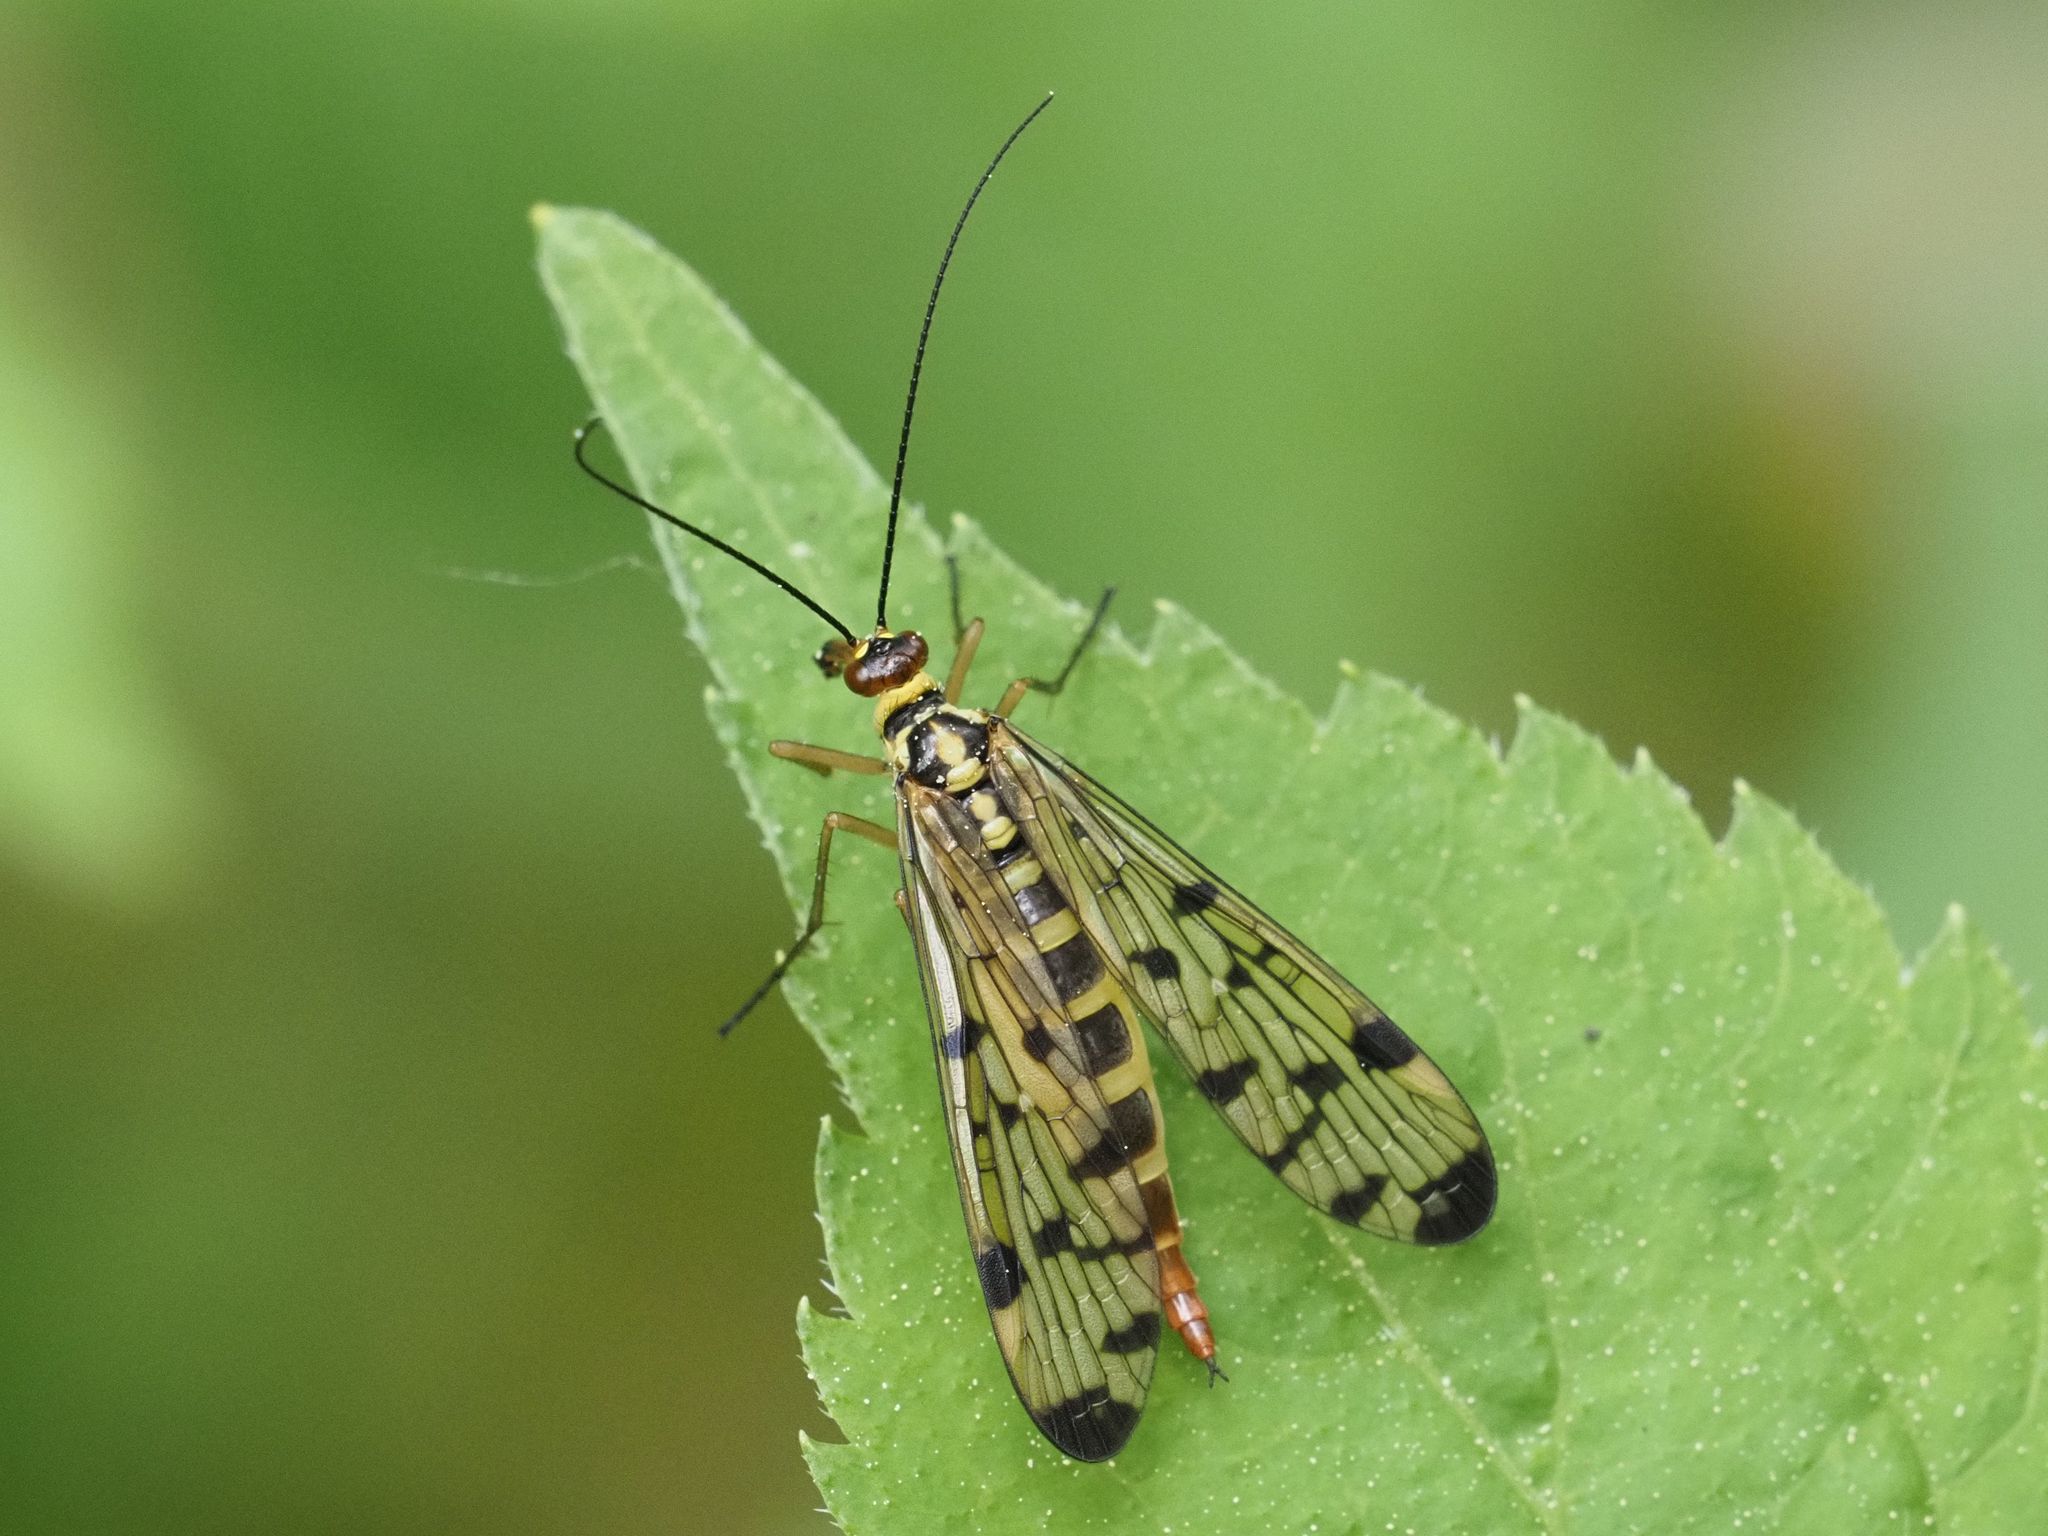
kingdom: Animalia
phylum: Arthropoda
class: Insecta
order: Mecoptera
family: Panorpidae
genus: Panorpa
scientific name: Panorpa germanica
